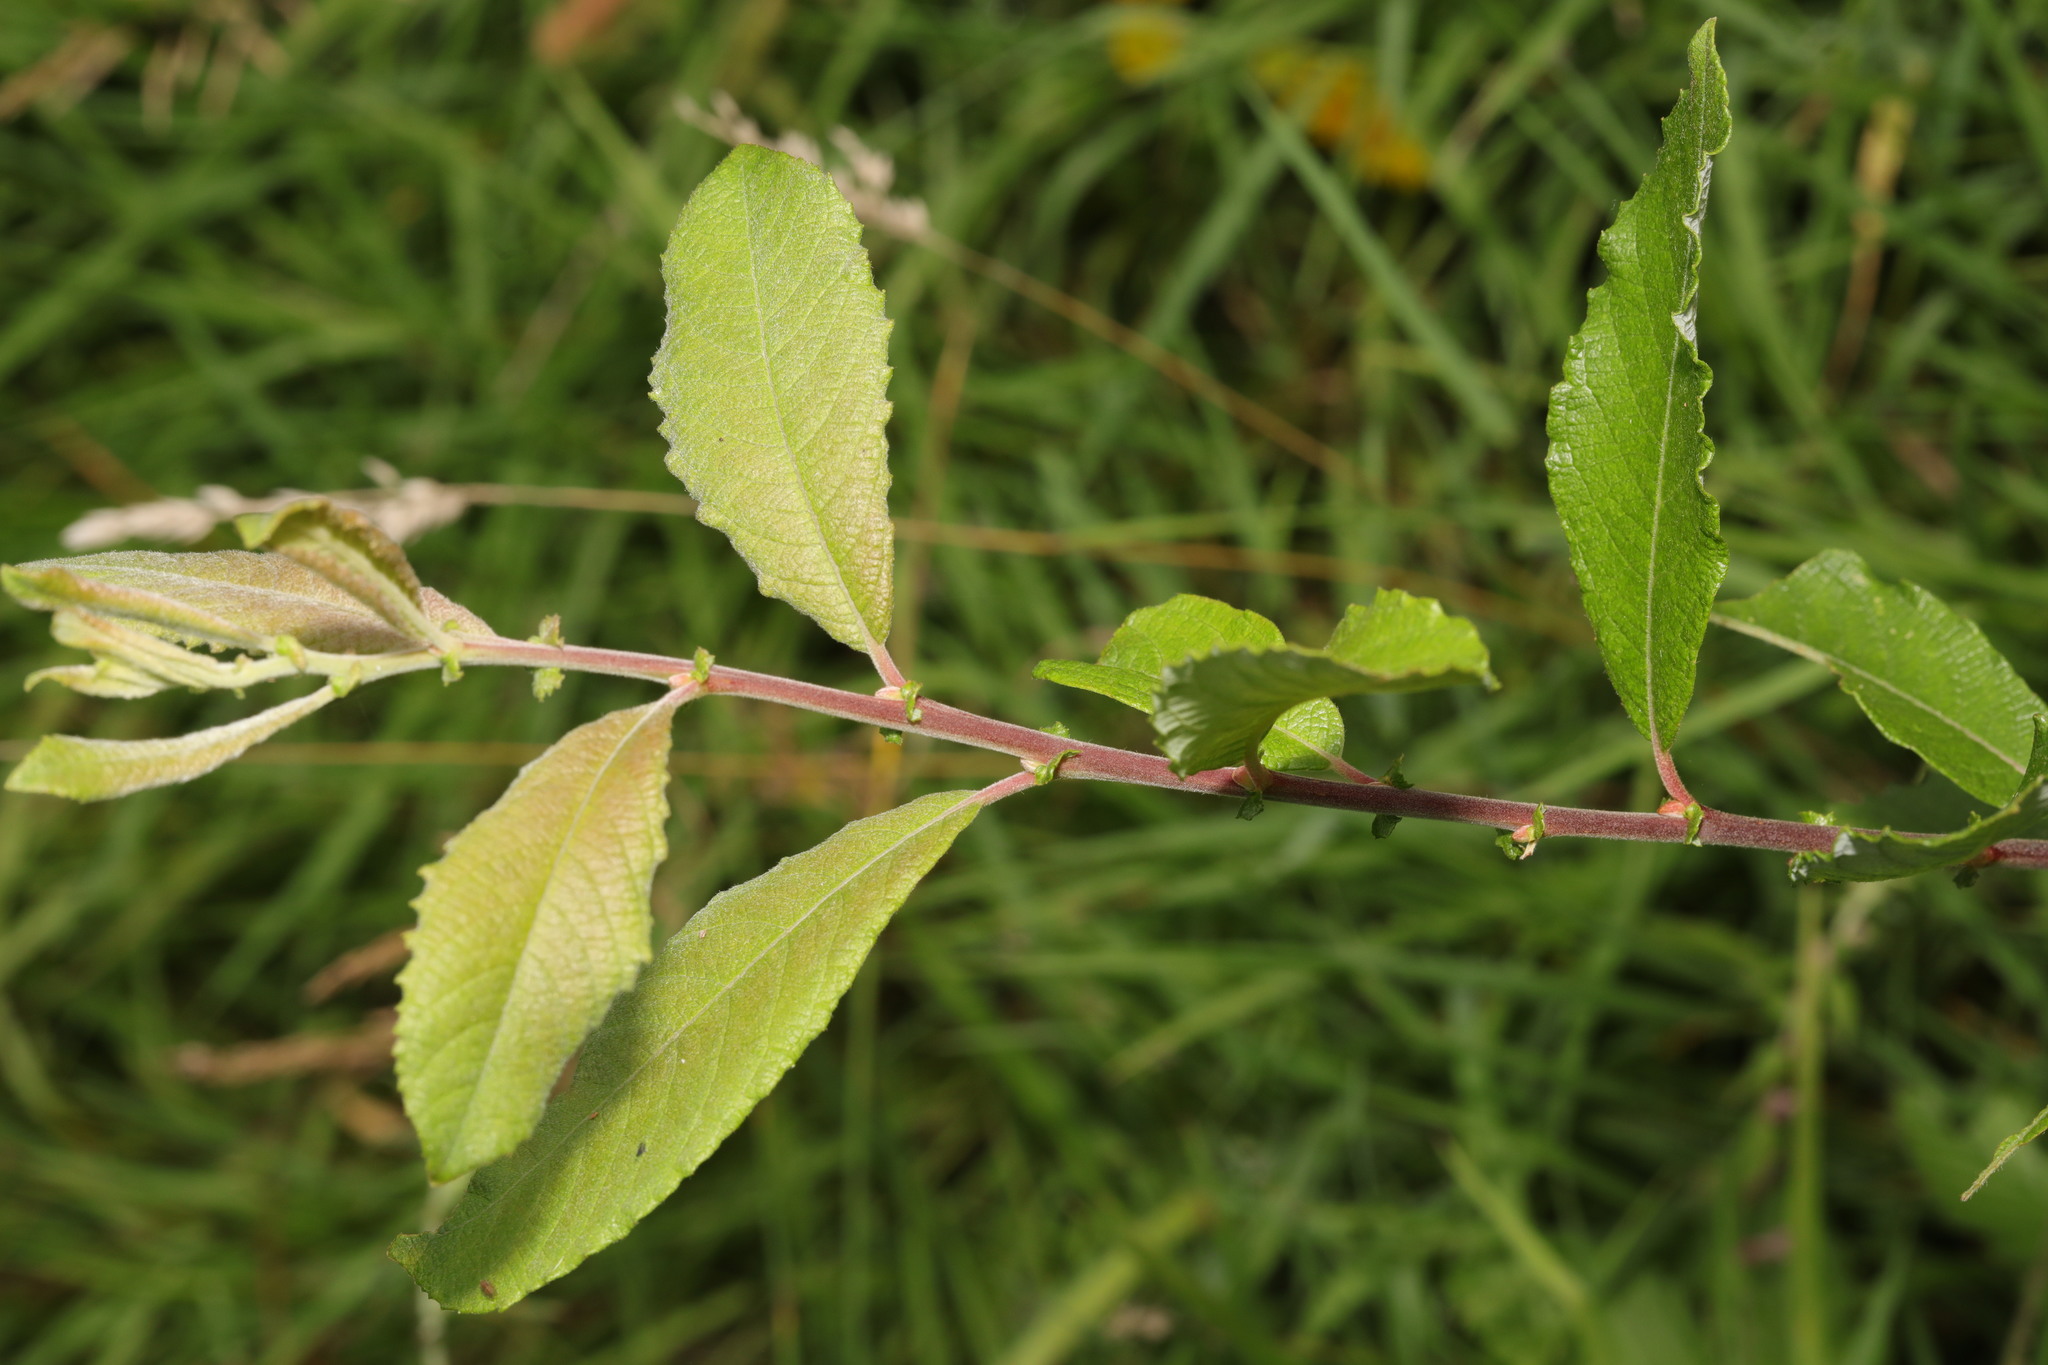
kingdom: Plantae
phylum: Tracheophyta
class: Magnoliopsida
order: Malpighiales
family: Salicaceae
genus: Salix
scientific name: Salix cinerea
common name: Common sallow
